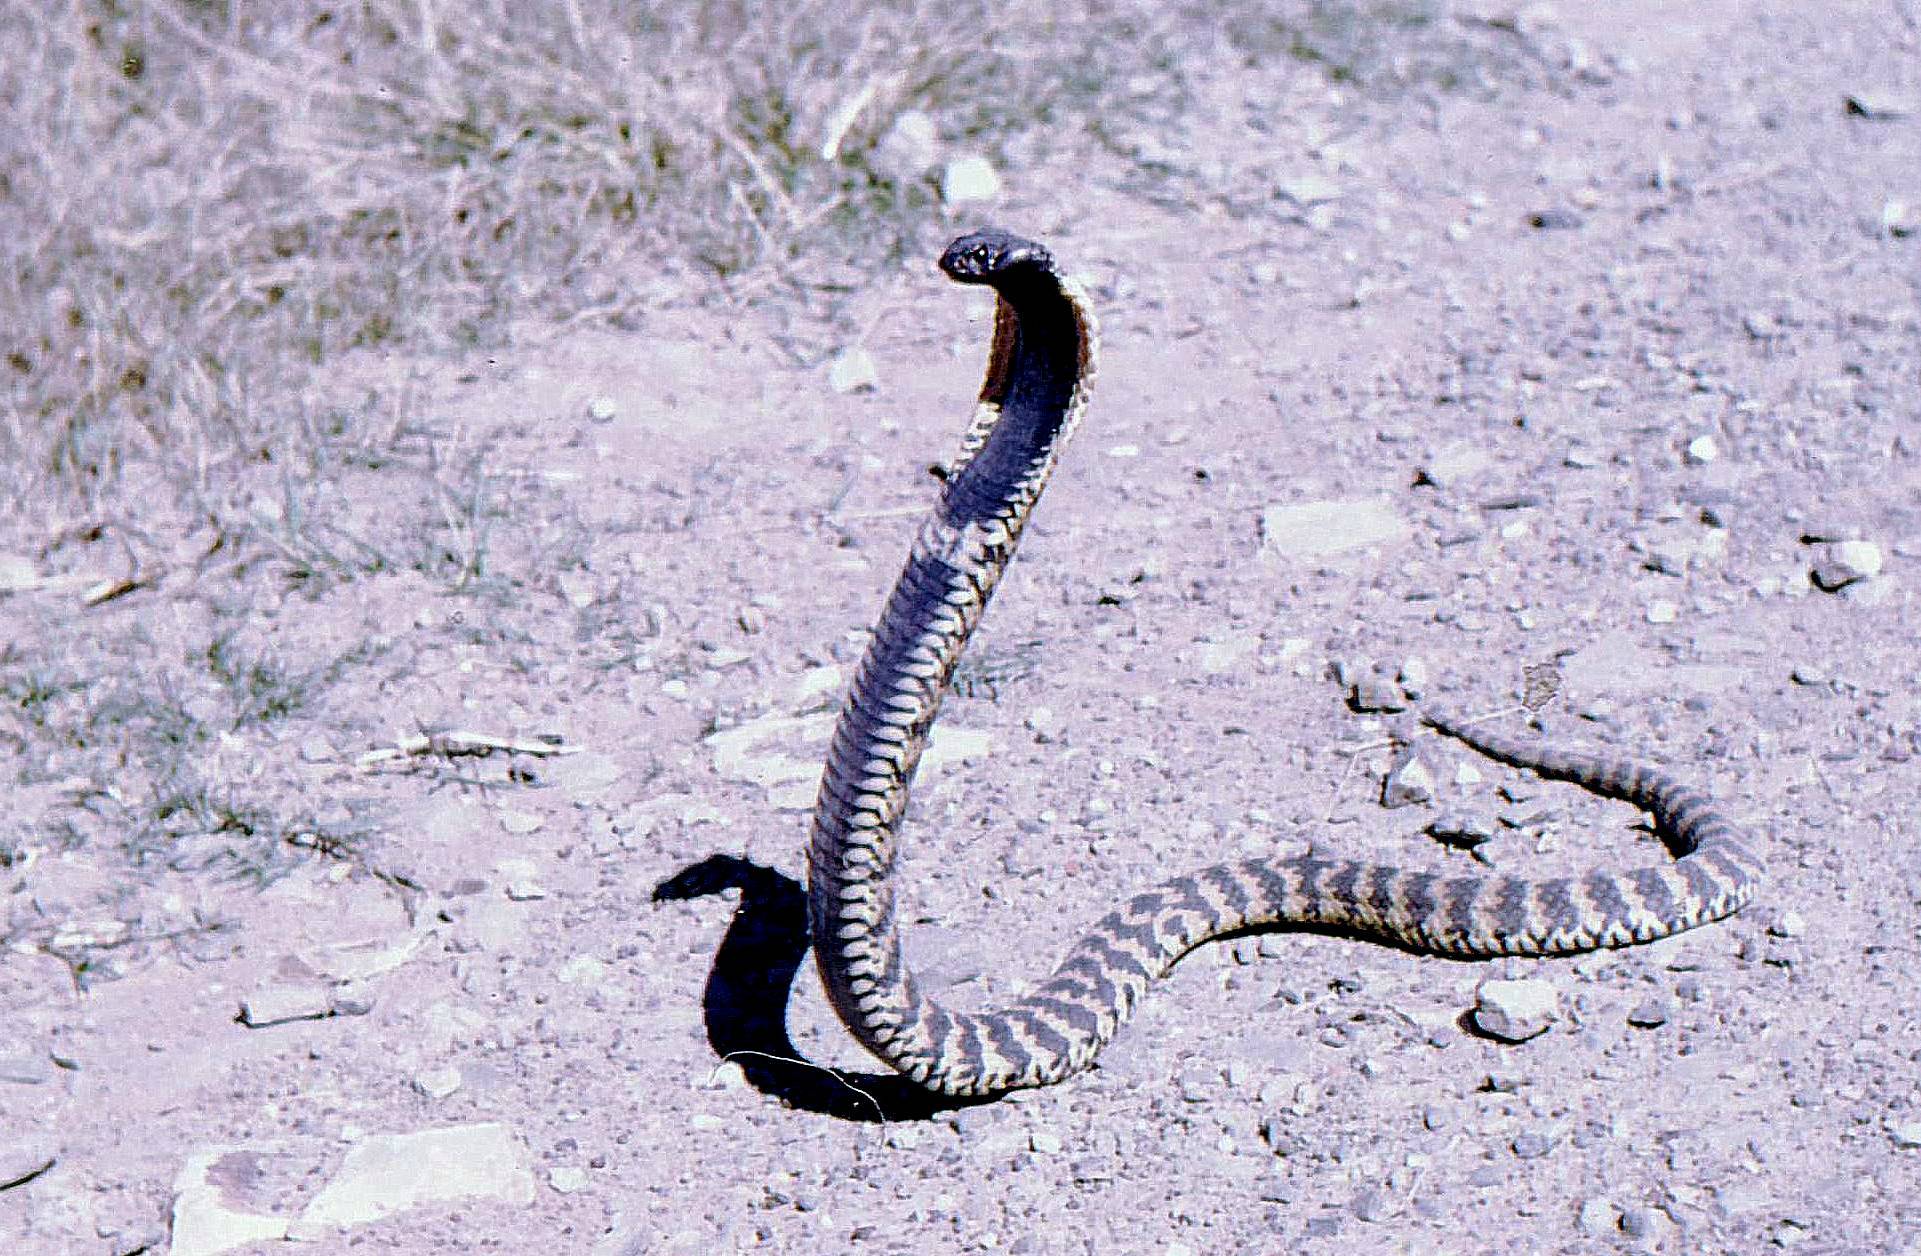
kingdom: Animalia
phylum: Chordata
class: Squamata
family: Elapidae
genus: Hemachatus
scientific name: Hemachatus haemachatus
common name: Ring-necked spitting cobra
